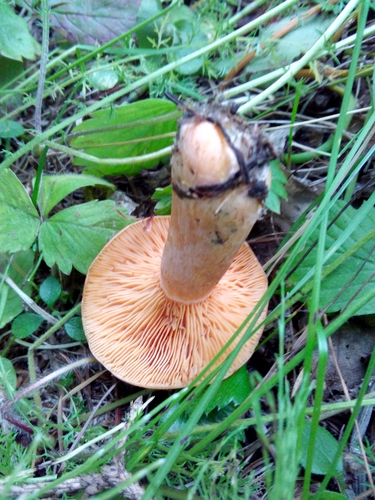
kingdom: Fungi
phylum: Basidiomycota
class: Agaricomycetes
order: Russulales
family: Russulaceae
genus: Lactarius
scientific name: Lactarius deliciosus
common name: Saffron milk-cap
